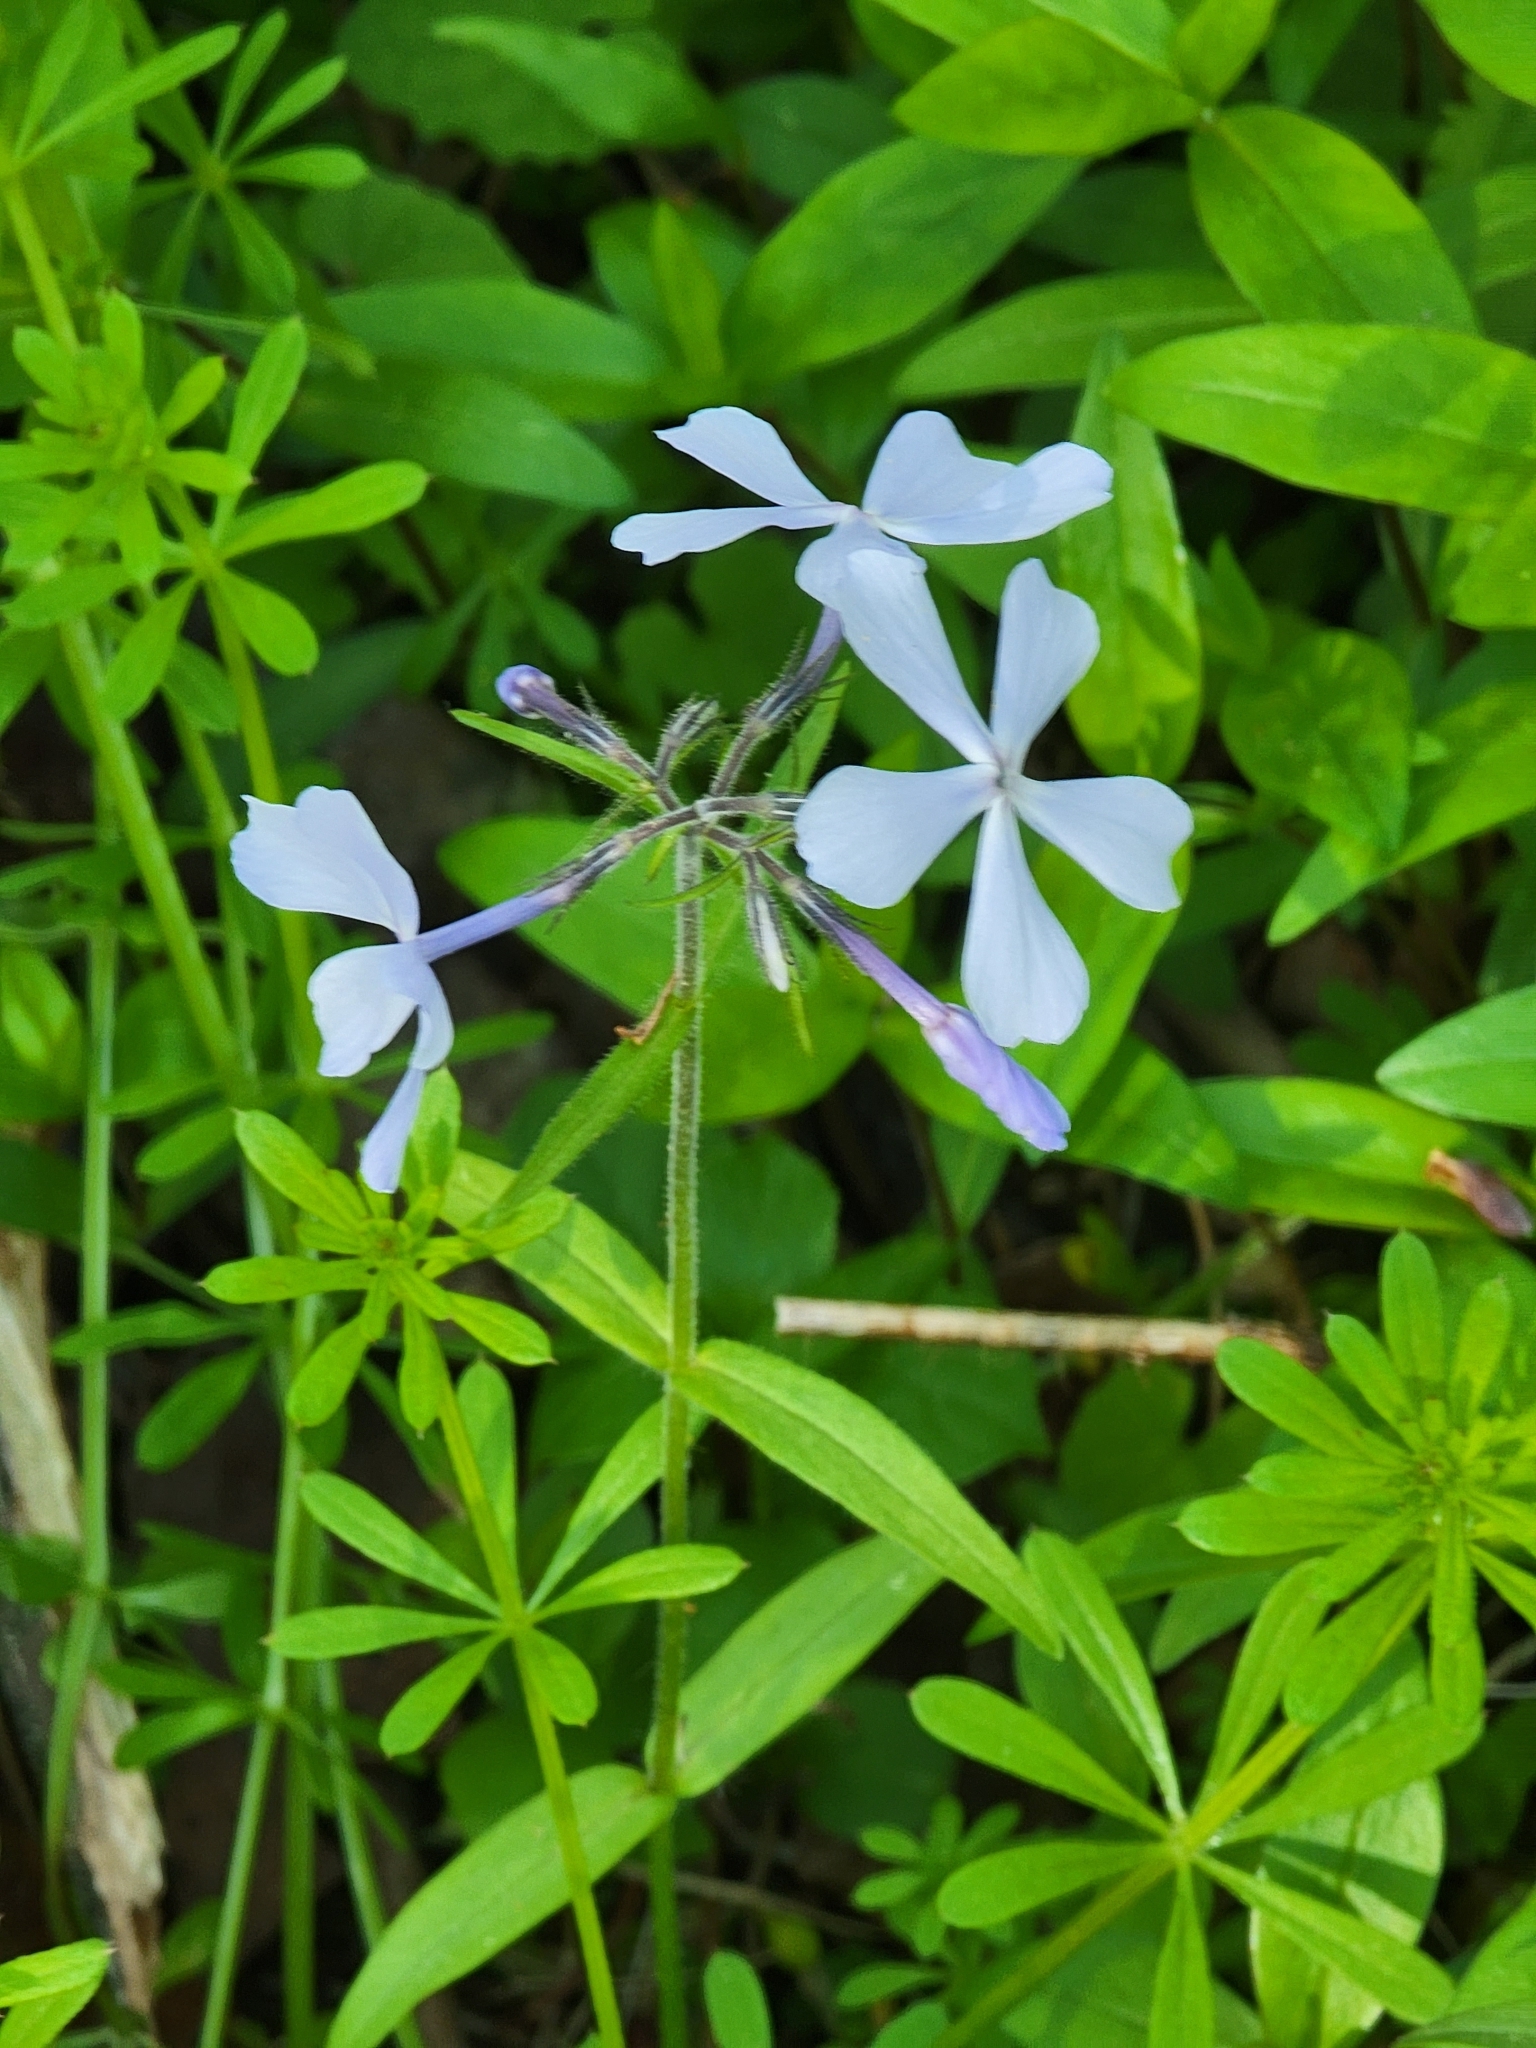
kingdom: Plantae
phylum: Tracheophyta
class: Magnoliopsida
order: Ericales
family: Polemoniaceae
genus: Phlox
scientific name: Phlox divaricata
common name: Blue phlox
